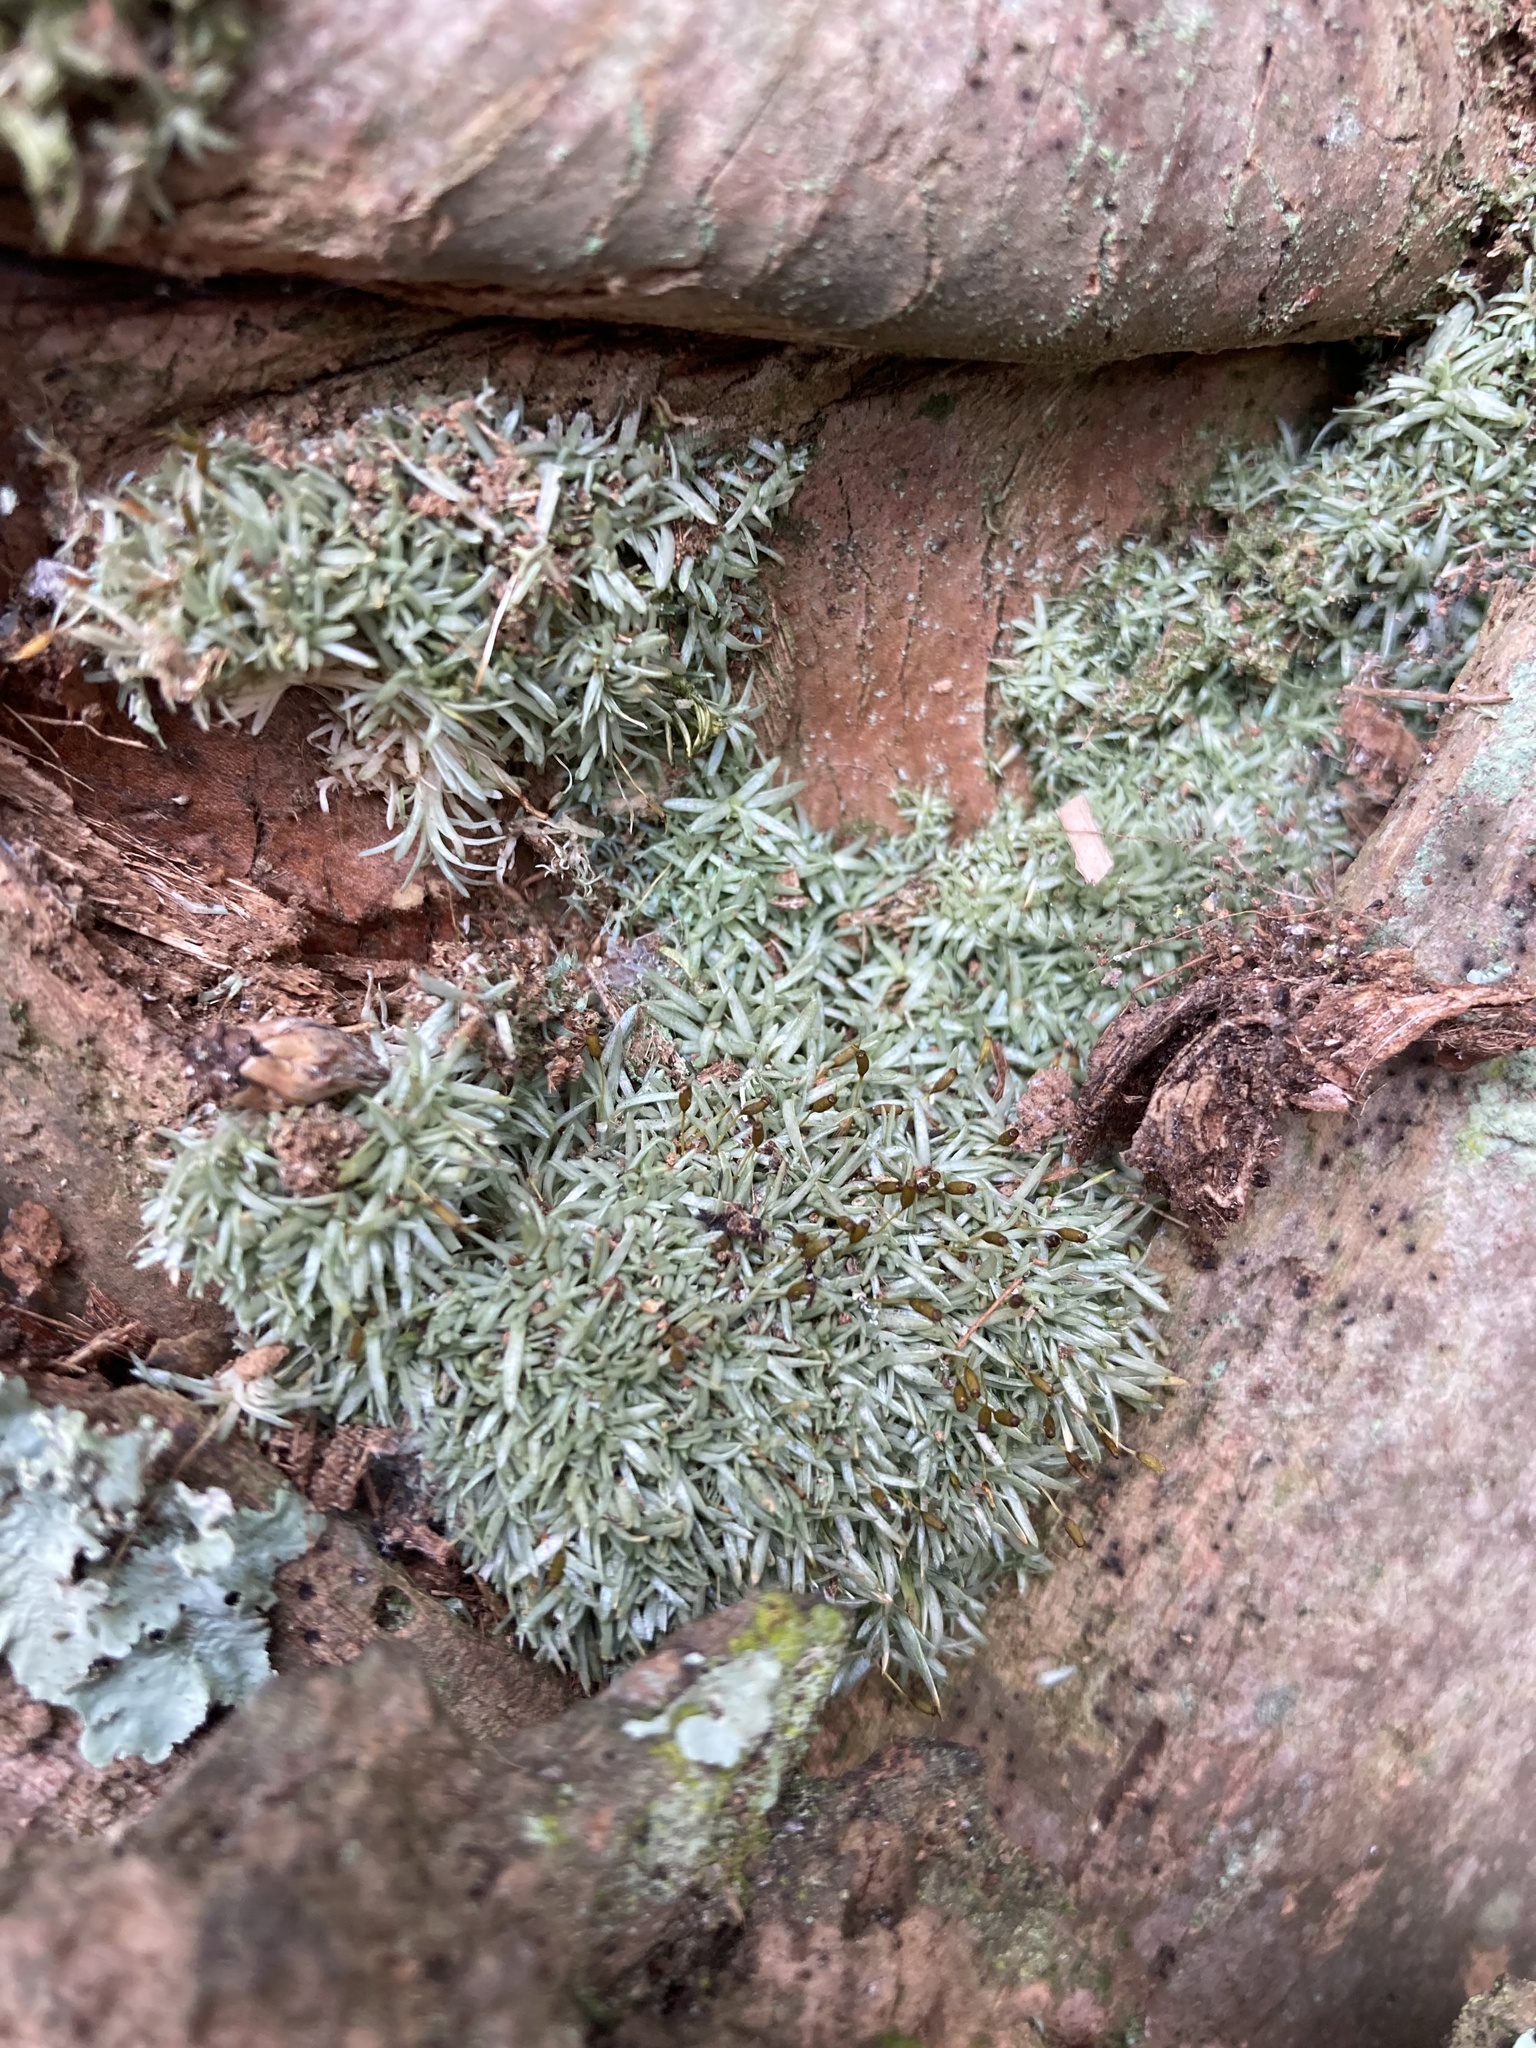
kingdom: Plantae
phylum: Bryophyta
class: Bryopsida
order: Dicranales
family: Octoblepharaceae
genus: Octoblepharum
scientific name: Octoblepharum albidum
